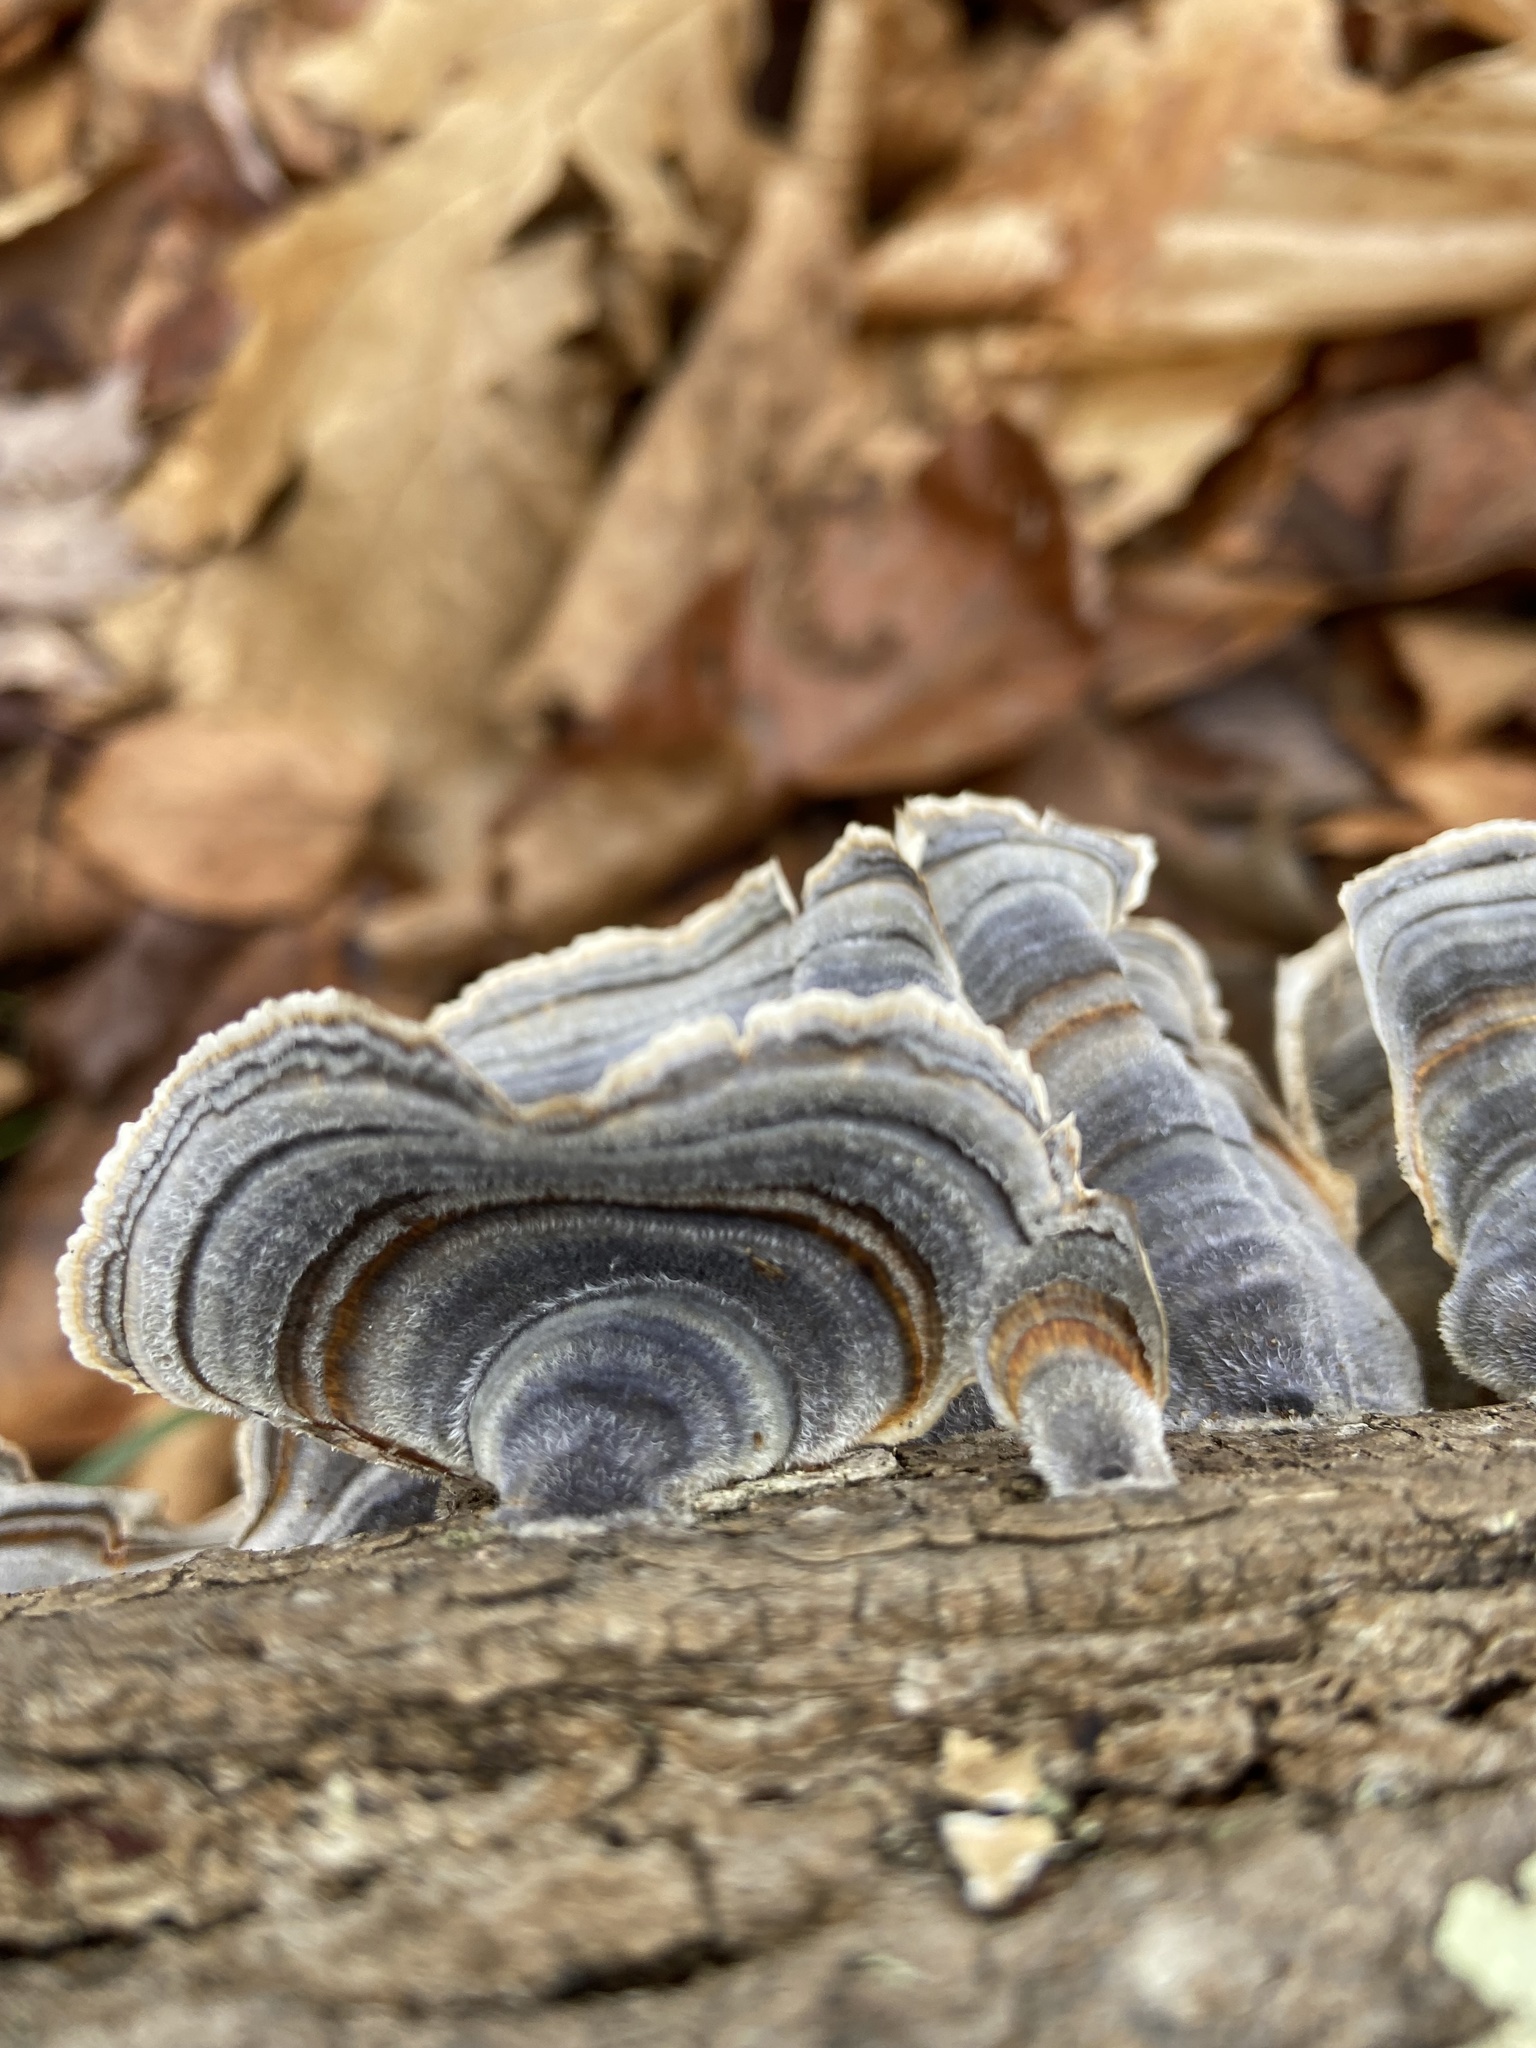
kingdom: Fungi
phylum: Basidiomycota
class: Agaricomycetes
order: Polyporales
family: Polyporaceae
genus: Trametes
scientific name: Trametes versicolor
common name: Turkeytail
